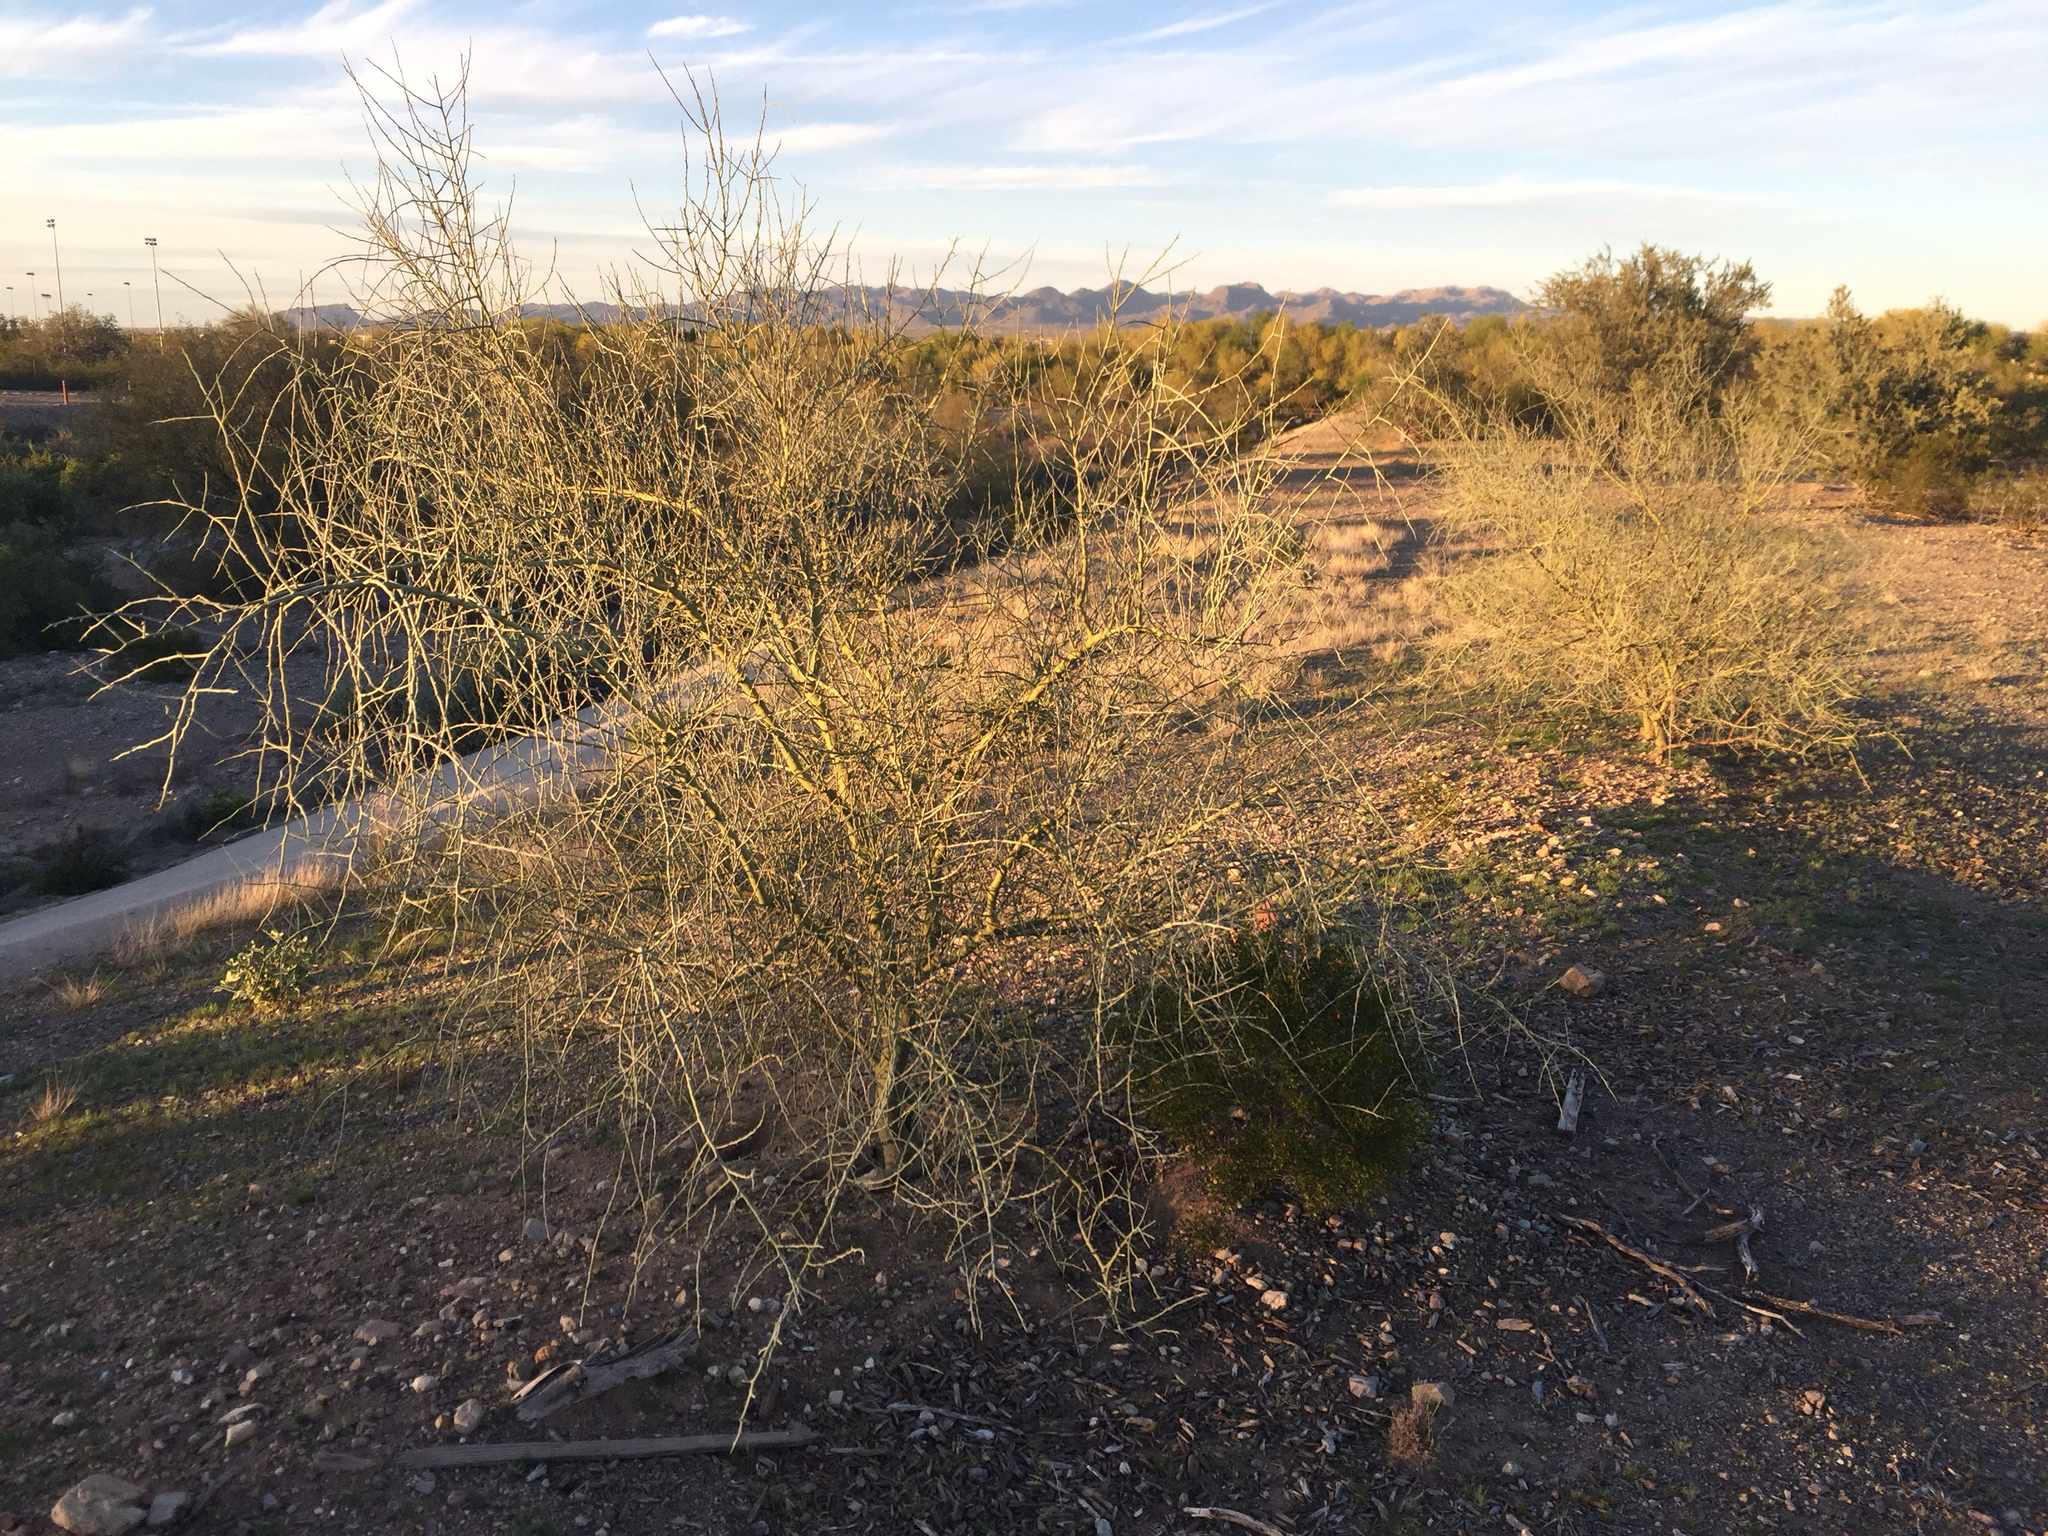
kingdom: Plantae
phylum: Tracheophyta
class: Magnoliopsida
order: Fabales
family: Fabaceae
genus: Parkinsonia
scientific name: Parkinsonia florida
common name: Blue paloverde
